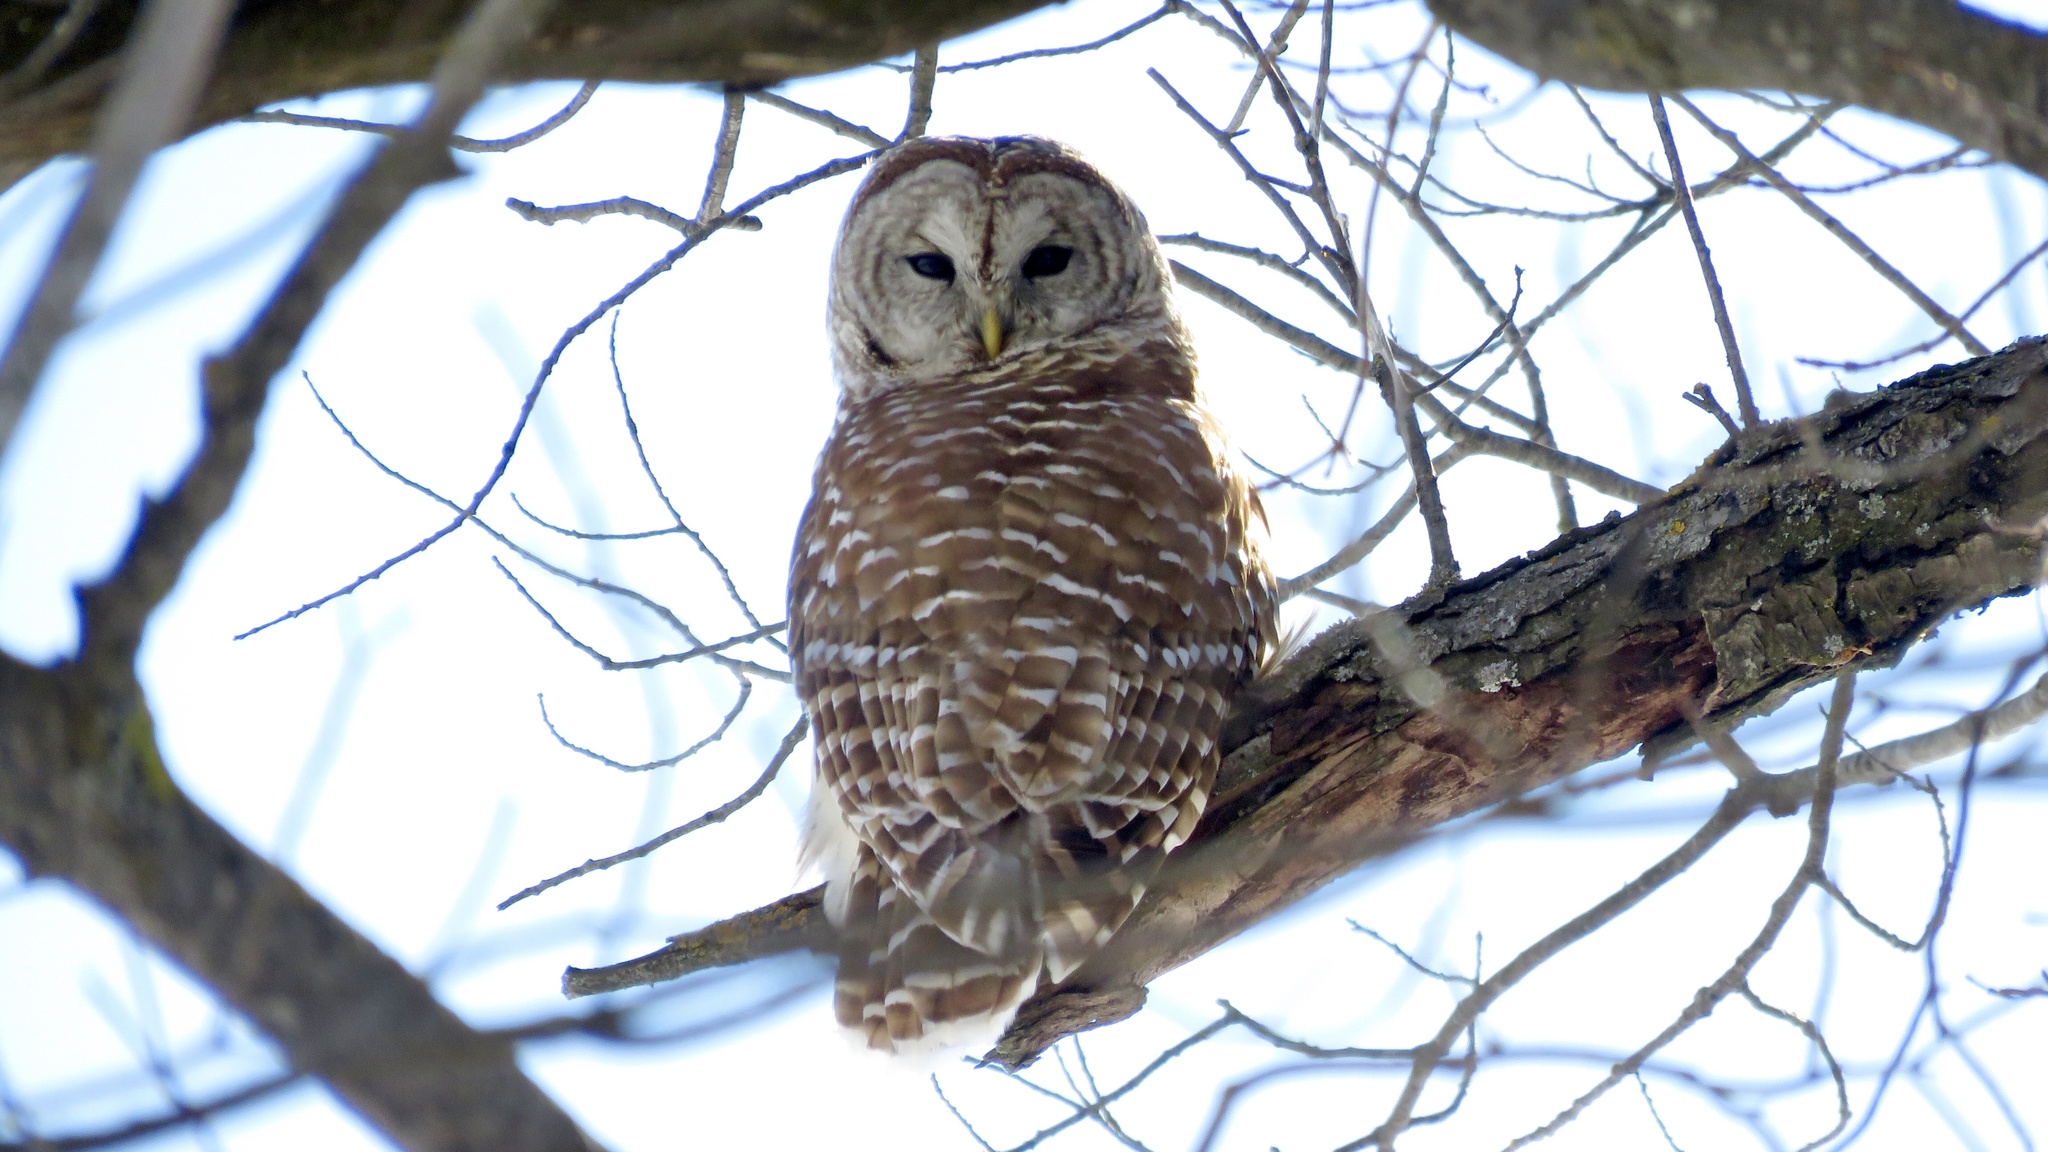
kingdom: Animalia
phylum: Chordata
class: Aves
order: Strigiformes
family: Strigidae
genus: Strix
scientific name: Strix varia
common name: Barred owl
